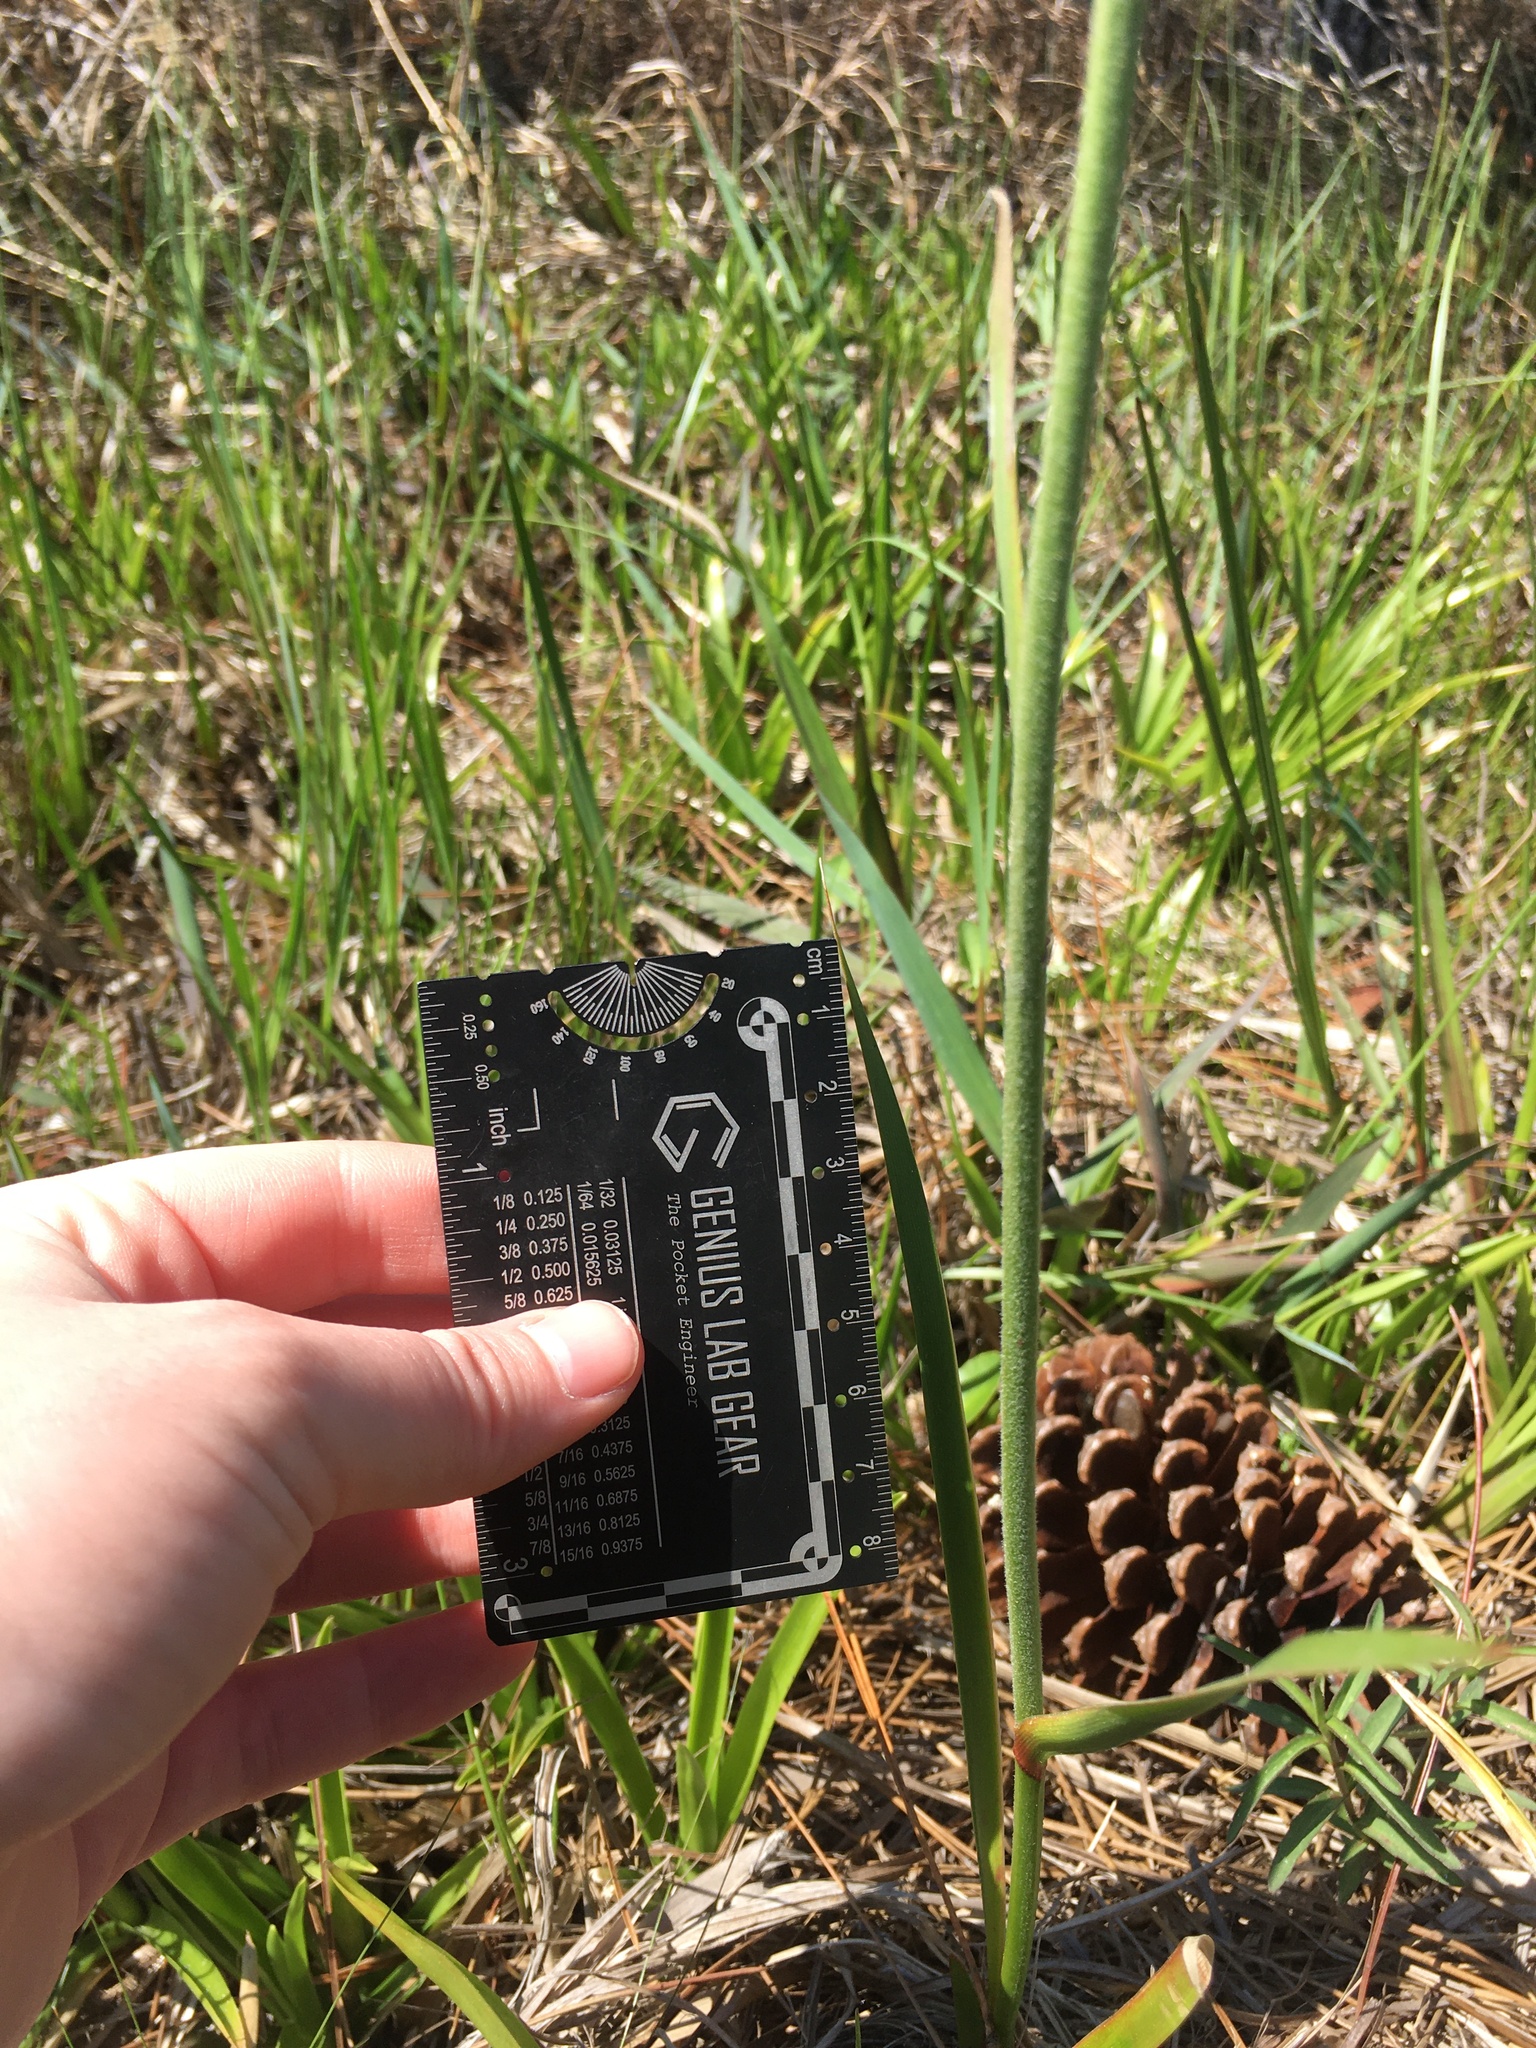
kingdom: Plantae
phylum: Tracheophyta
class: Liliopsida
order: Dioscoreales
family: Nartheciaceae
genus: Lophiola
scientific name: Lophiola aurea
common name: Golden-crest
